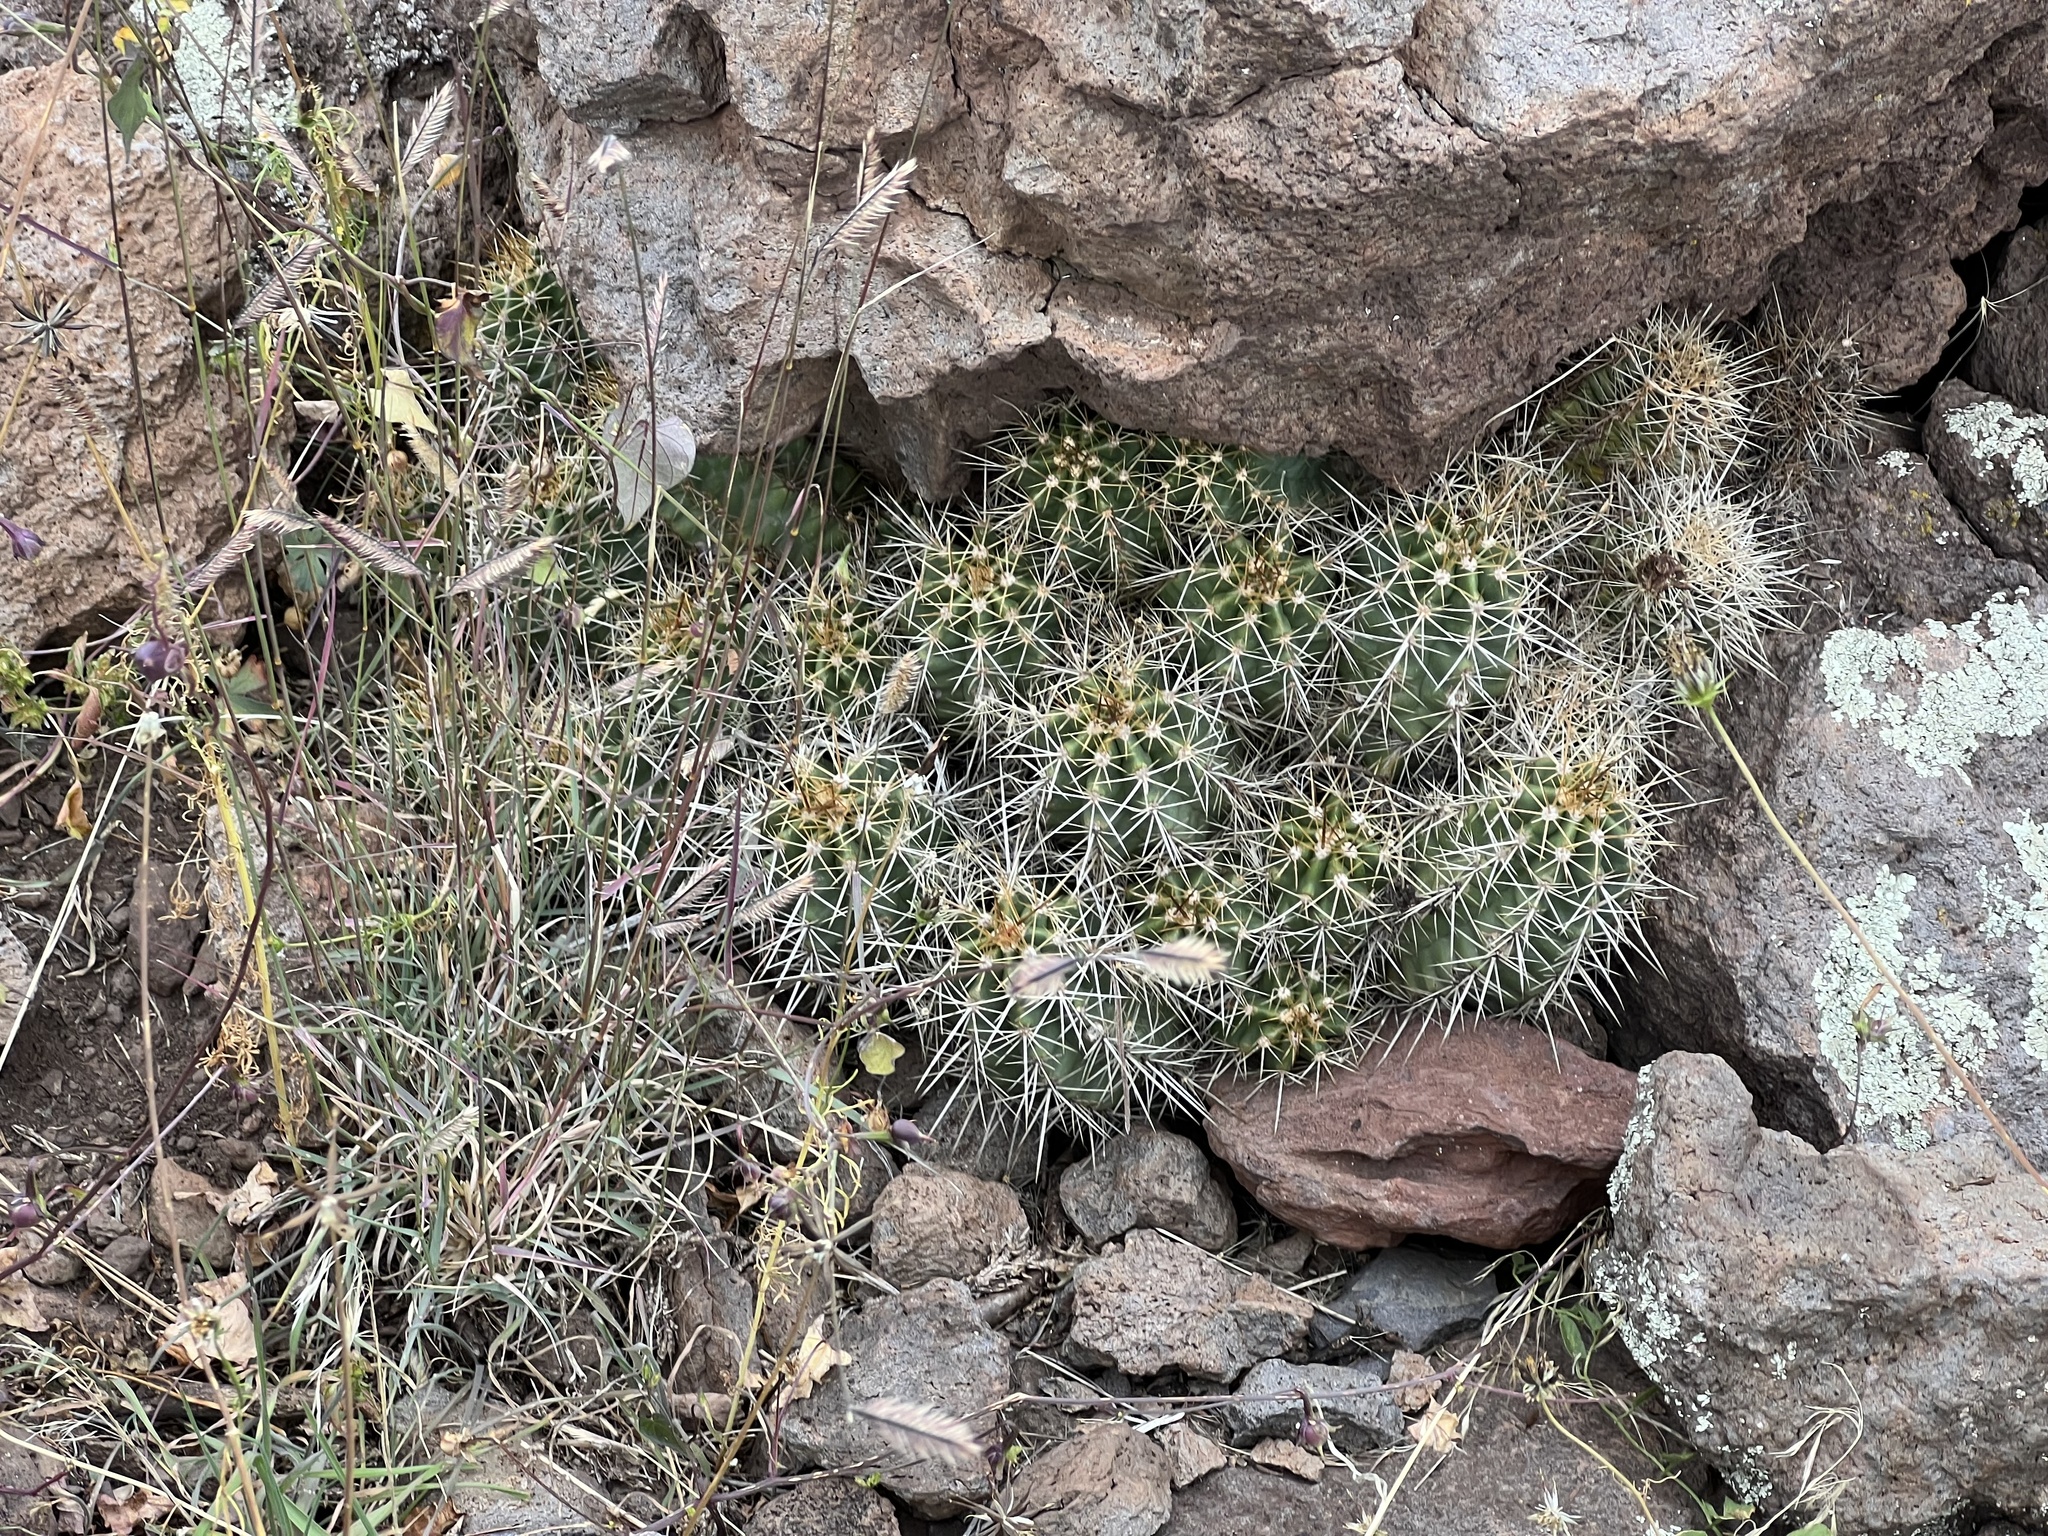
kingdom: Plantae
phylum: Tracheophyta
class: Magnoliopsida
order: Caryophyllales
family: Cactaceae
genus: Echinocereus
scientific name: Echinocereus bakeri
